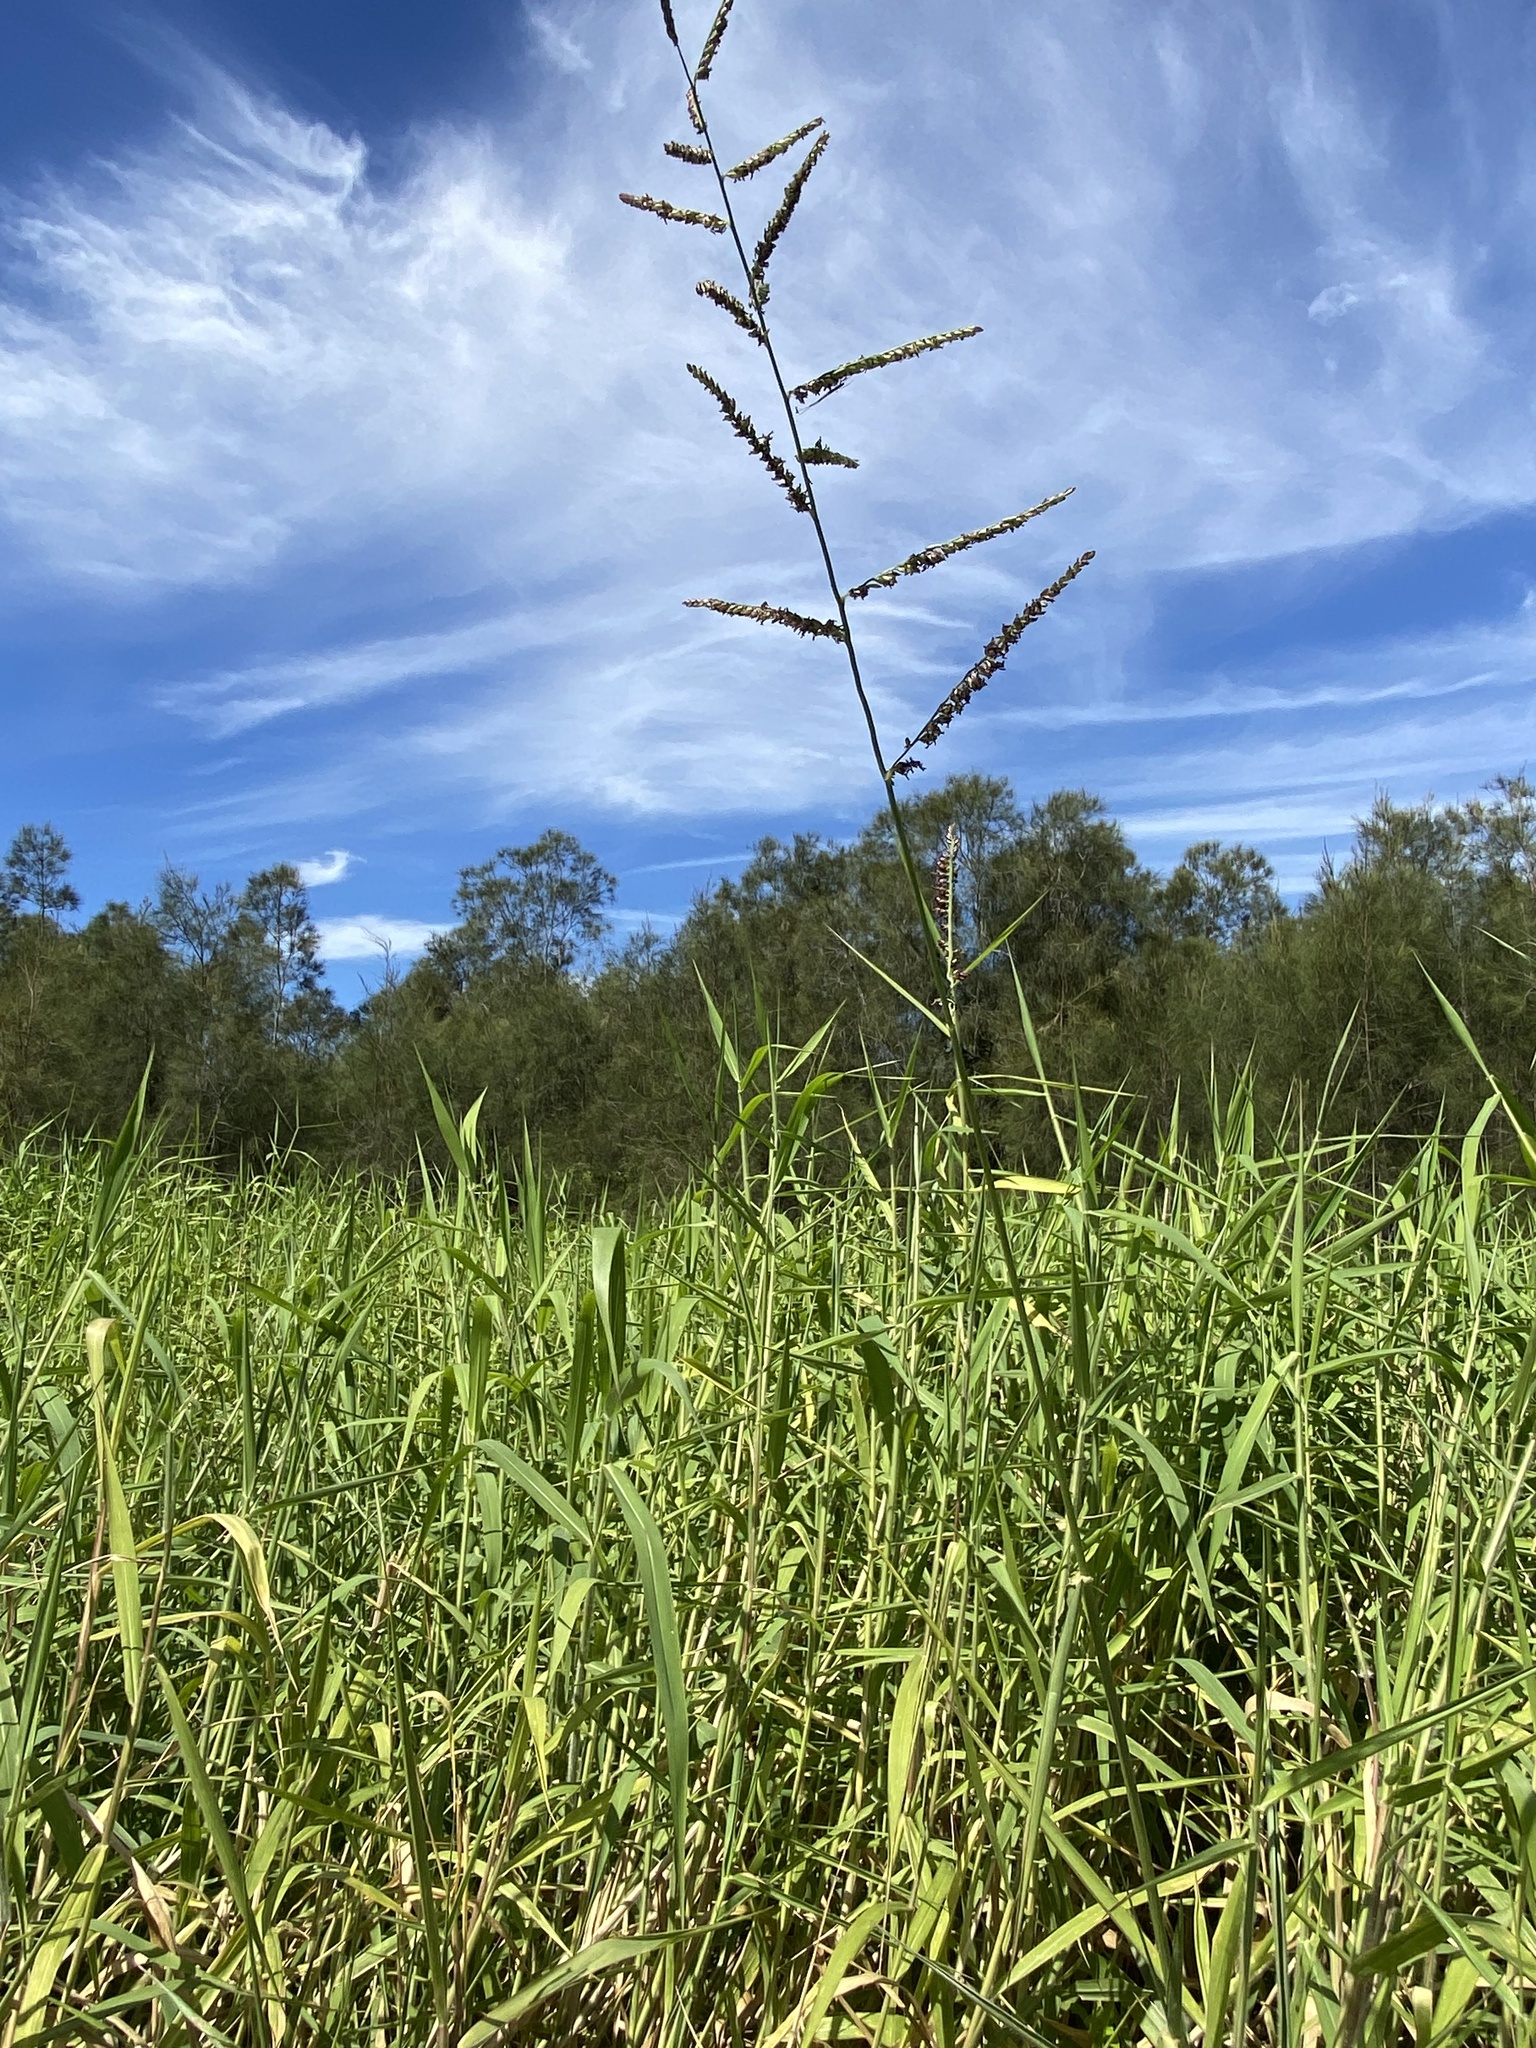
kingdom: Plantae
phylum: Tracheophyta
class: Liliopsida
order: Poales
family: Poaceae
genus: Urochloa
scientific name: Urochloa mutica
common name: Para grass
